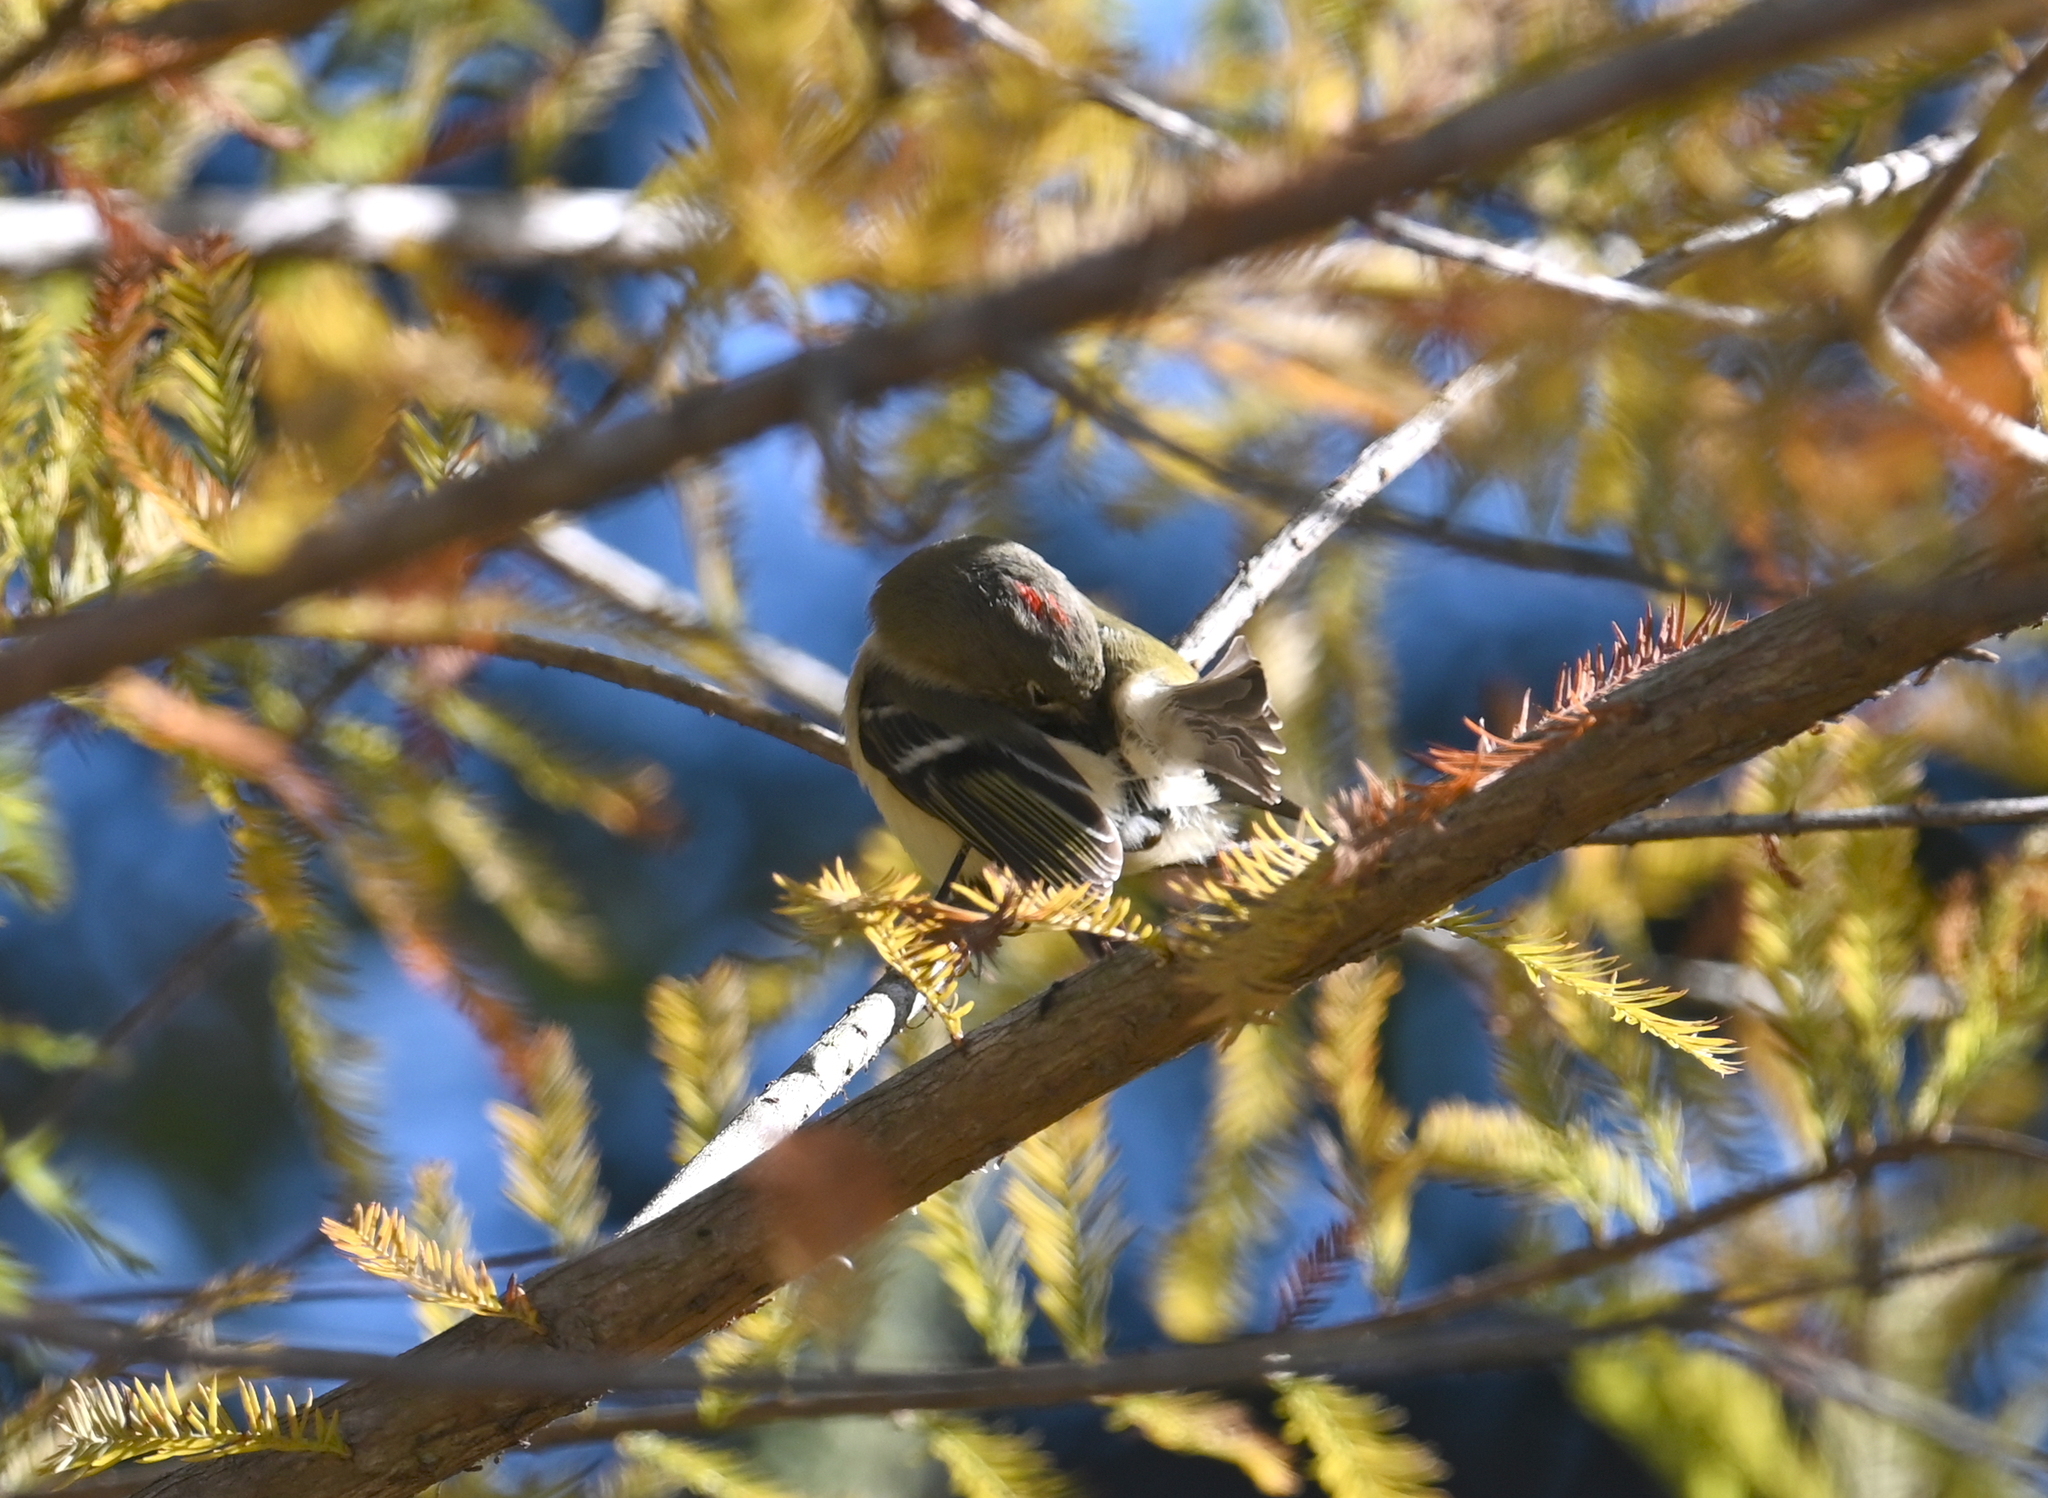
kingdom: Animalia
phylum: Chordata
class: Aves
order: Passeriformes
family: Regulidae
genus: Regulus
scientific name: Regulus calendula
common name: Ruby-crowned kinglet
